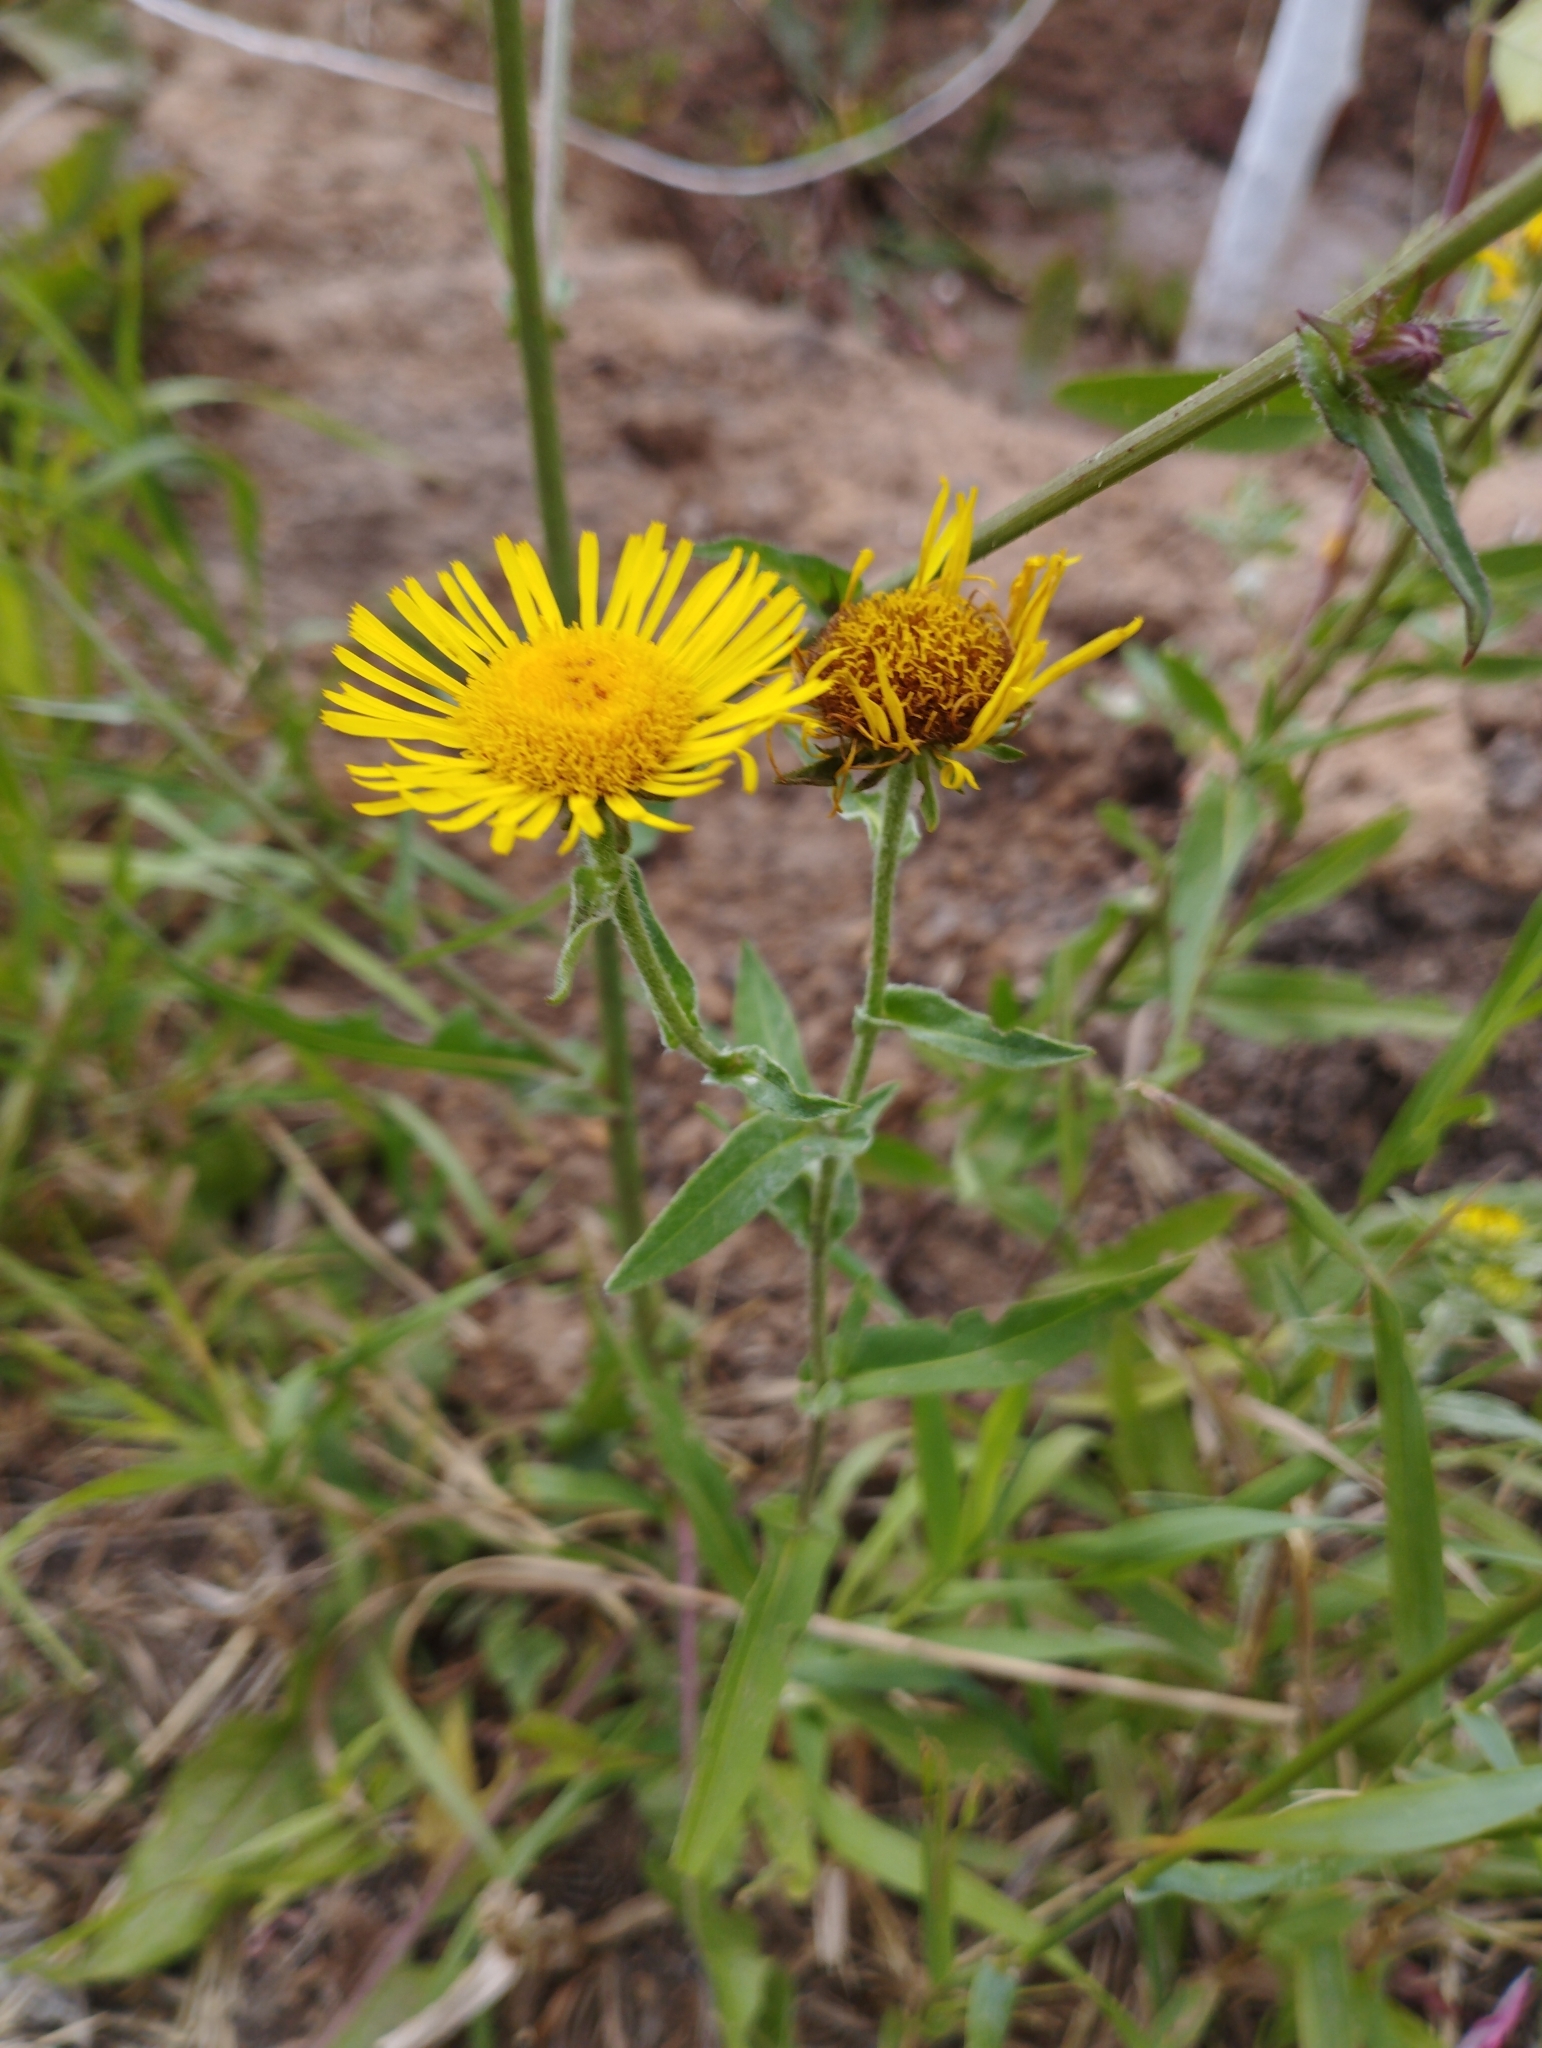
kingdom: Plantae
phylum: Tracheophyta
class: Magnoliopsida
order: Asterales
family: Asteraceae
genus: Pentanema
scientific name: Pentanema britannicum
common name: British elecampane
